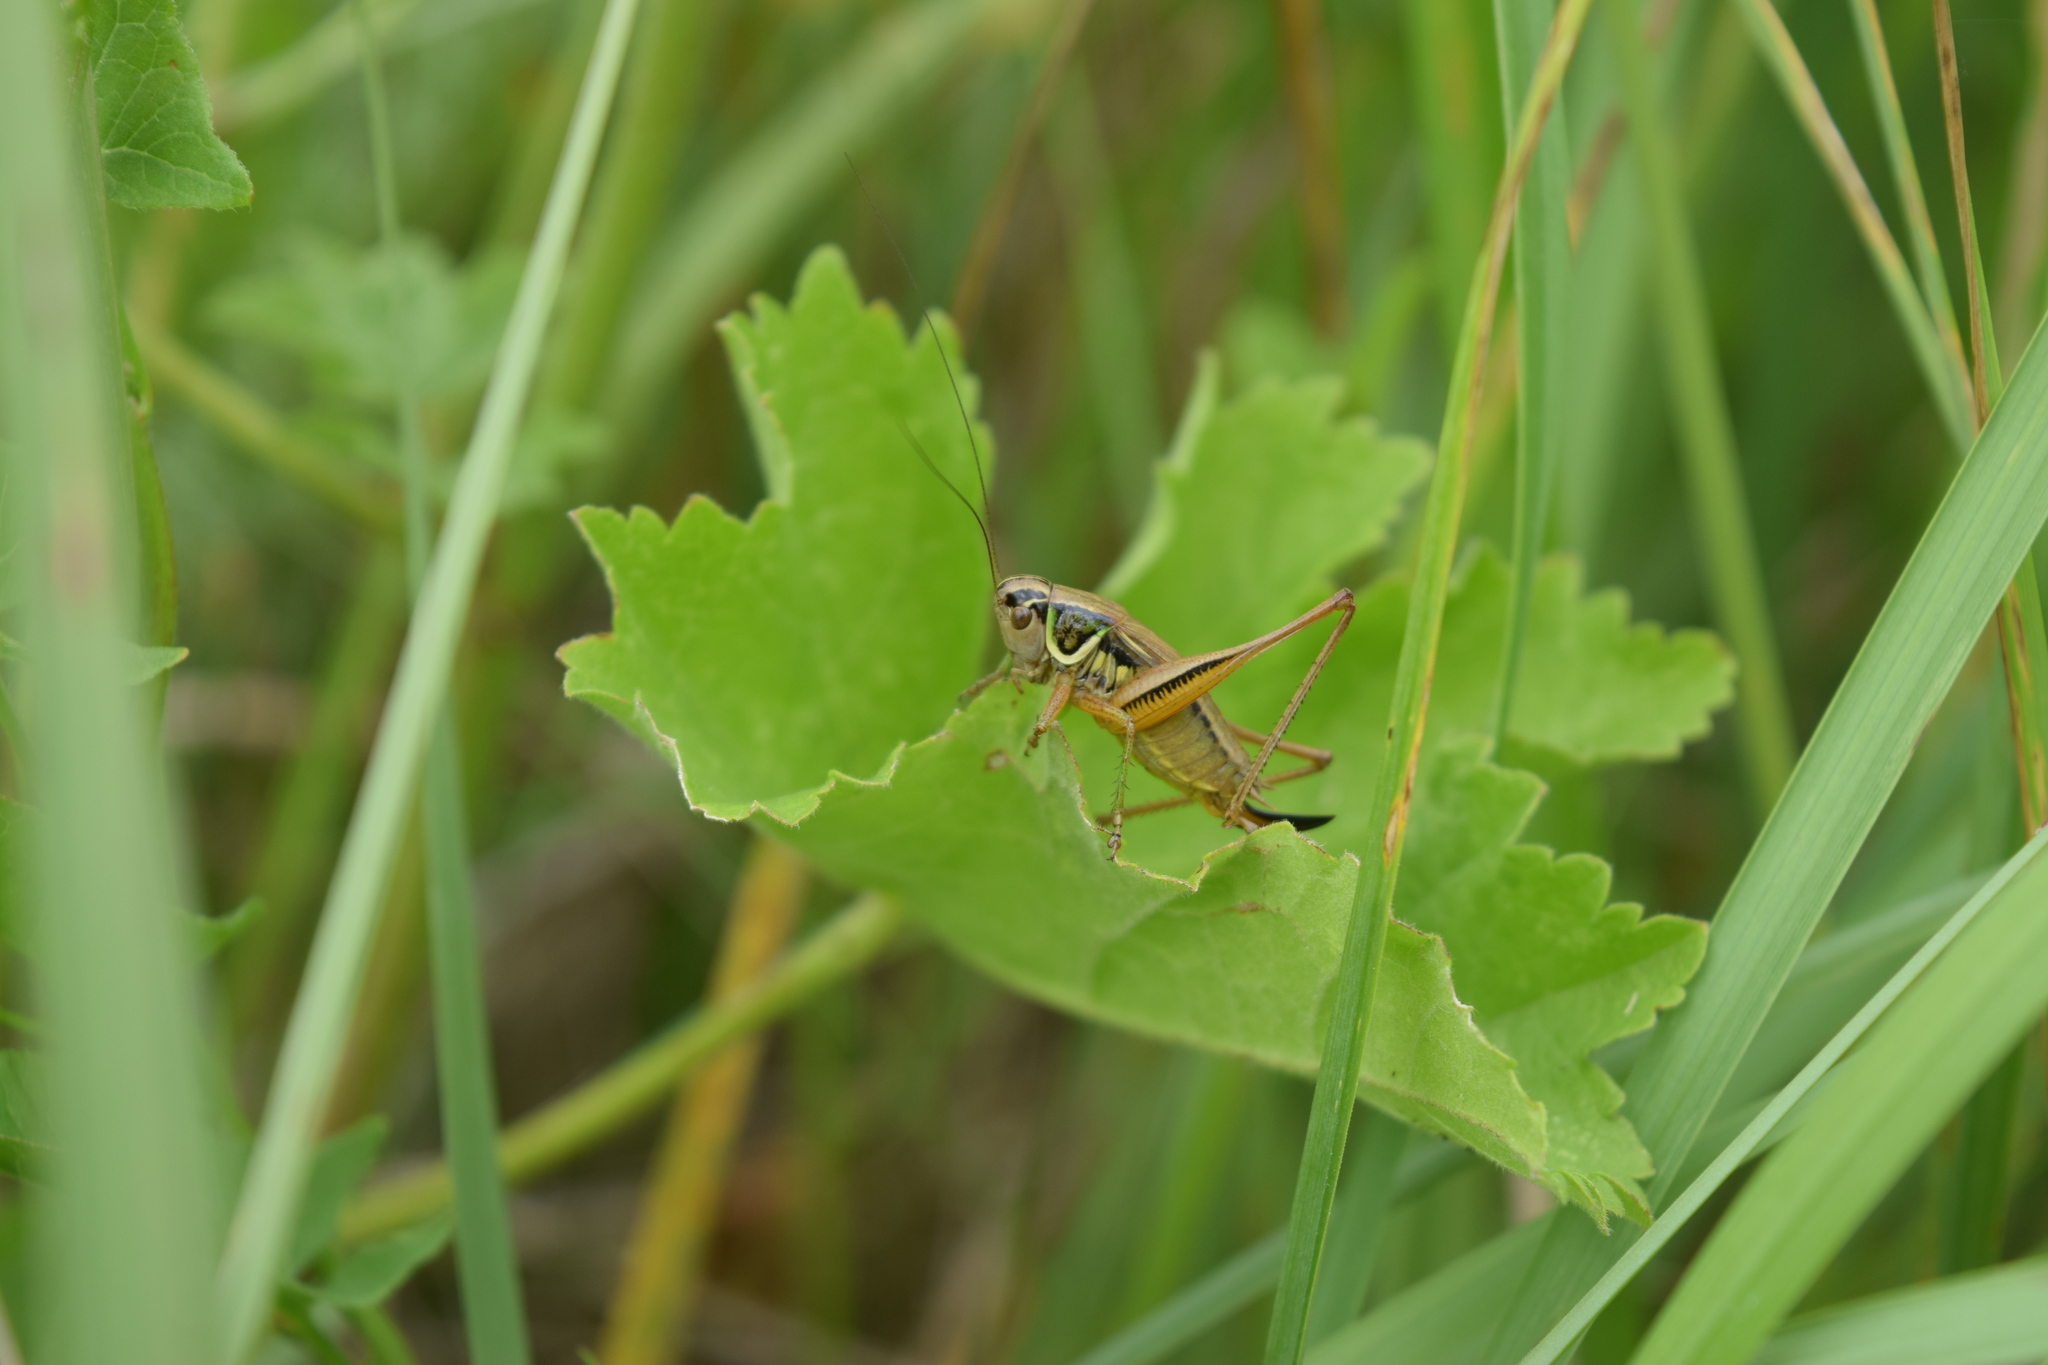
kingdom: Animalia
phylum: Arthropoda
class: Insecta
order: Orthoptera
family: Tettigoniidae
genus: Roeseliana
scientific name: Roeseliana roeselii
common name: Roesel's bush cricket
